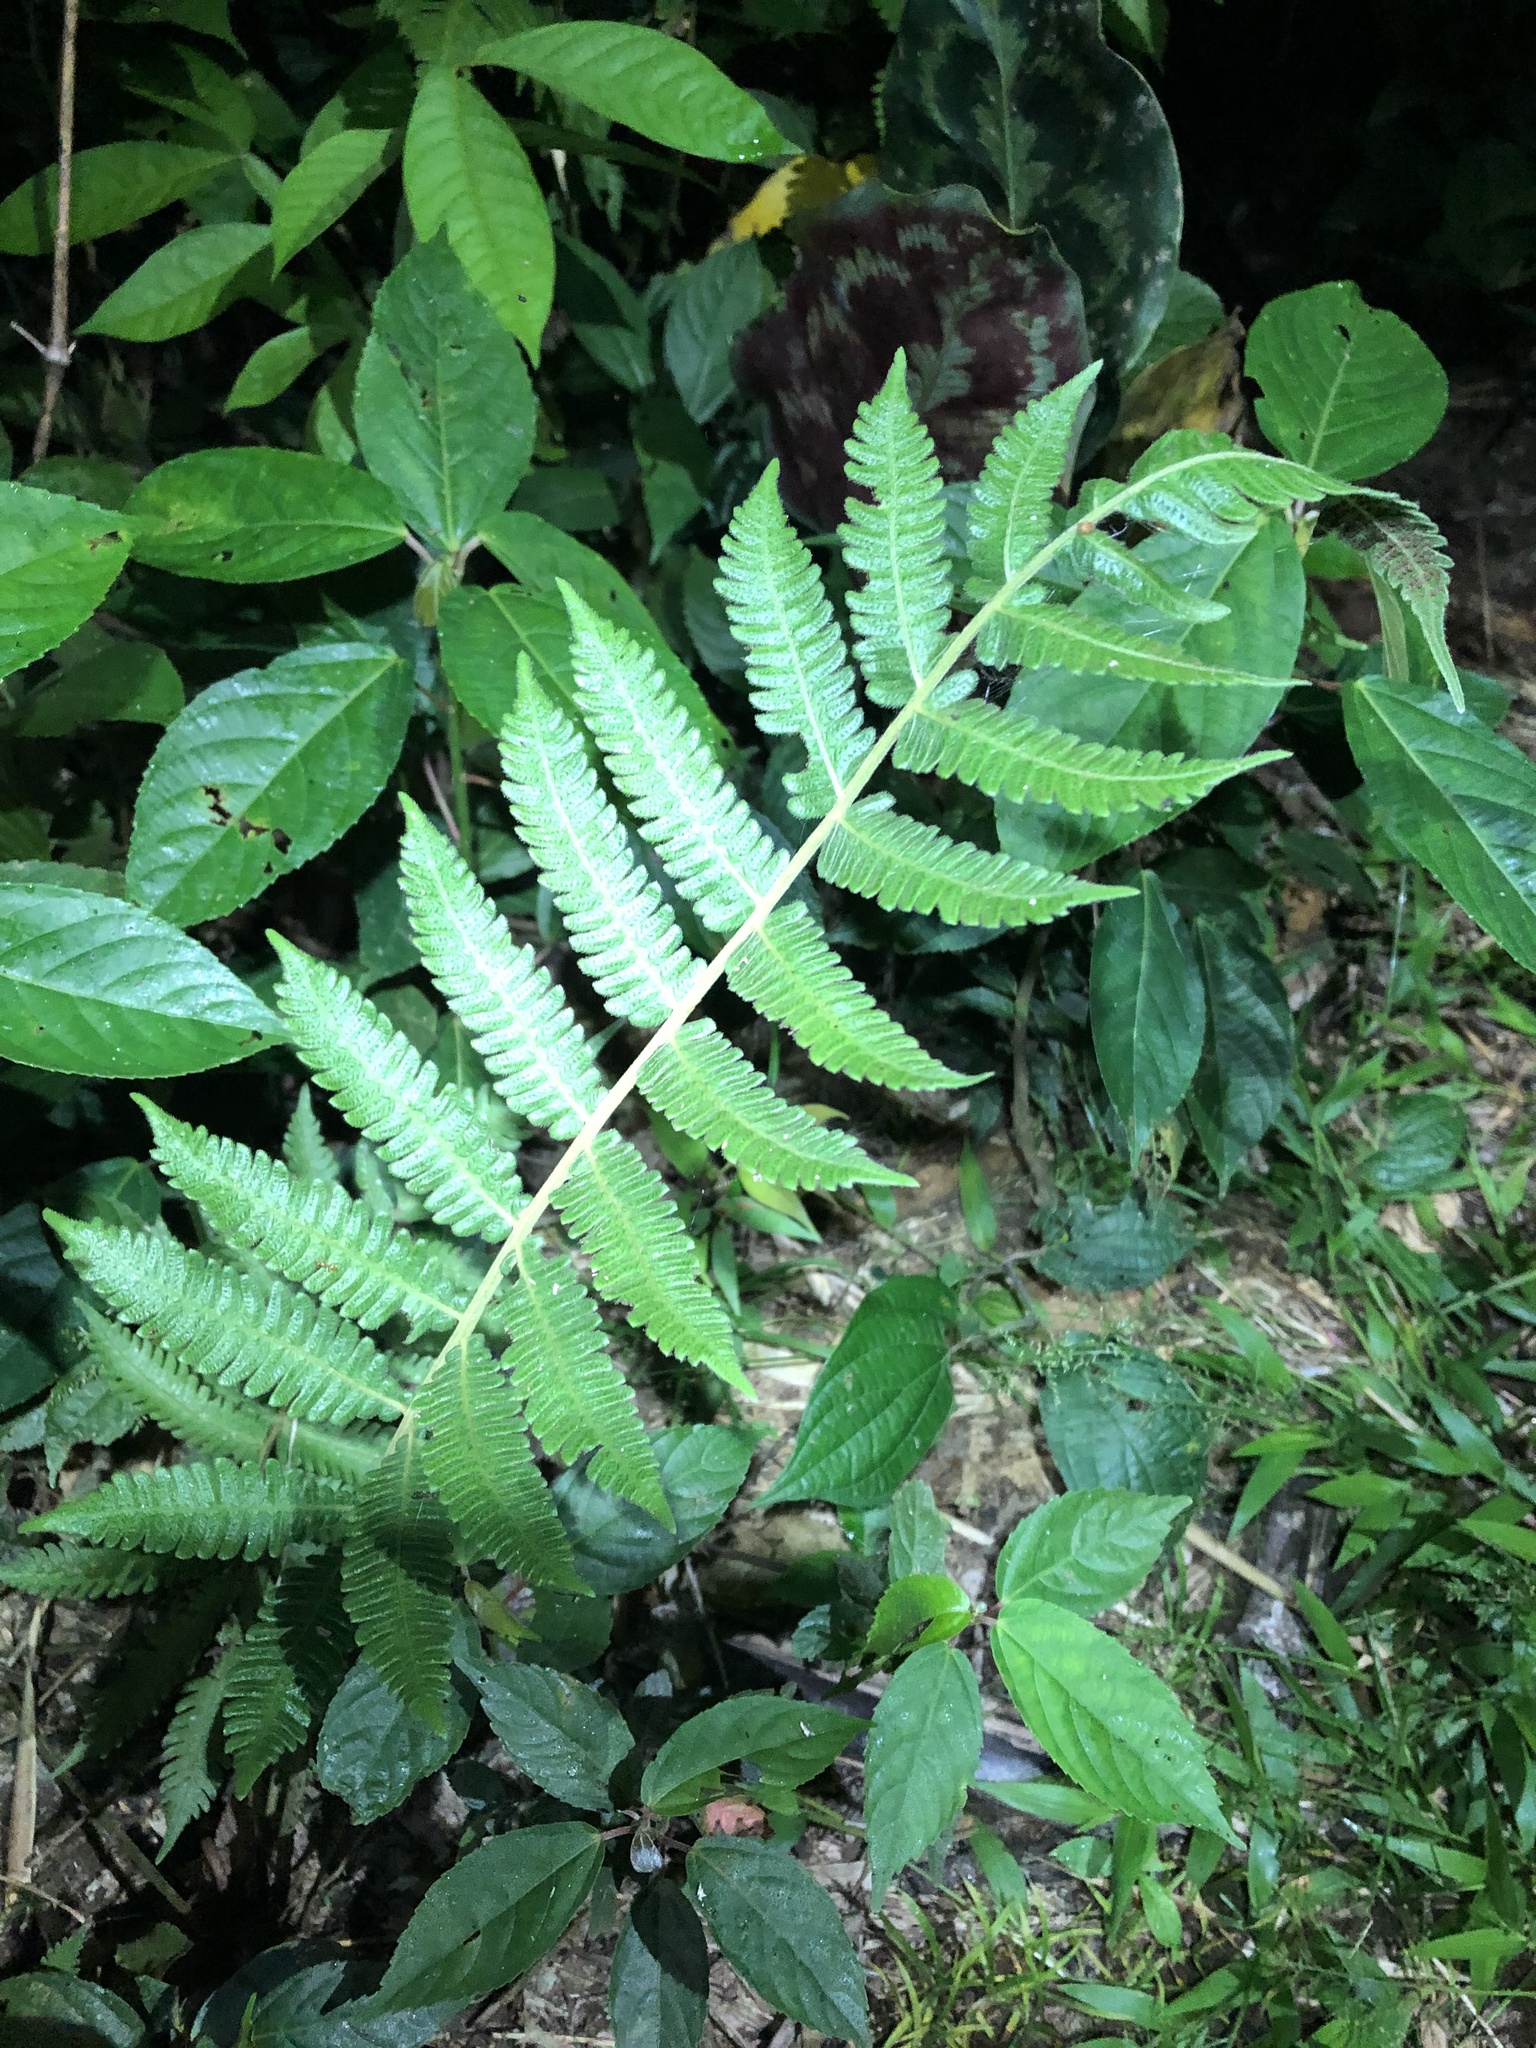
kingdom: Plantae
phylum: Tracheophyta
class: Polypodiopsida
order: Polypodiales
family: Thelypteridaceae
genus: Christella
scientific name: Christella dentata
